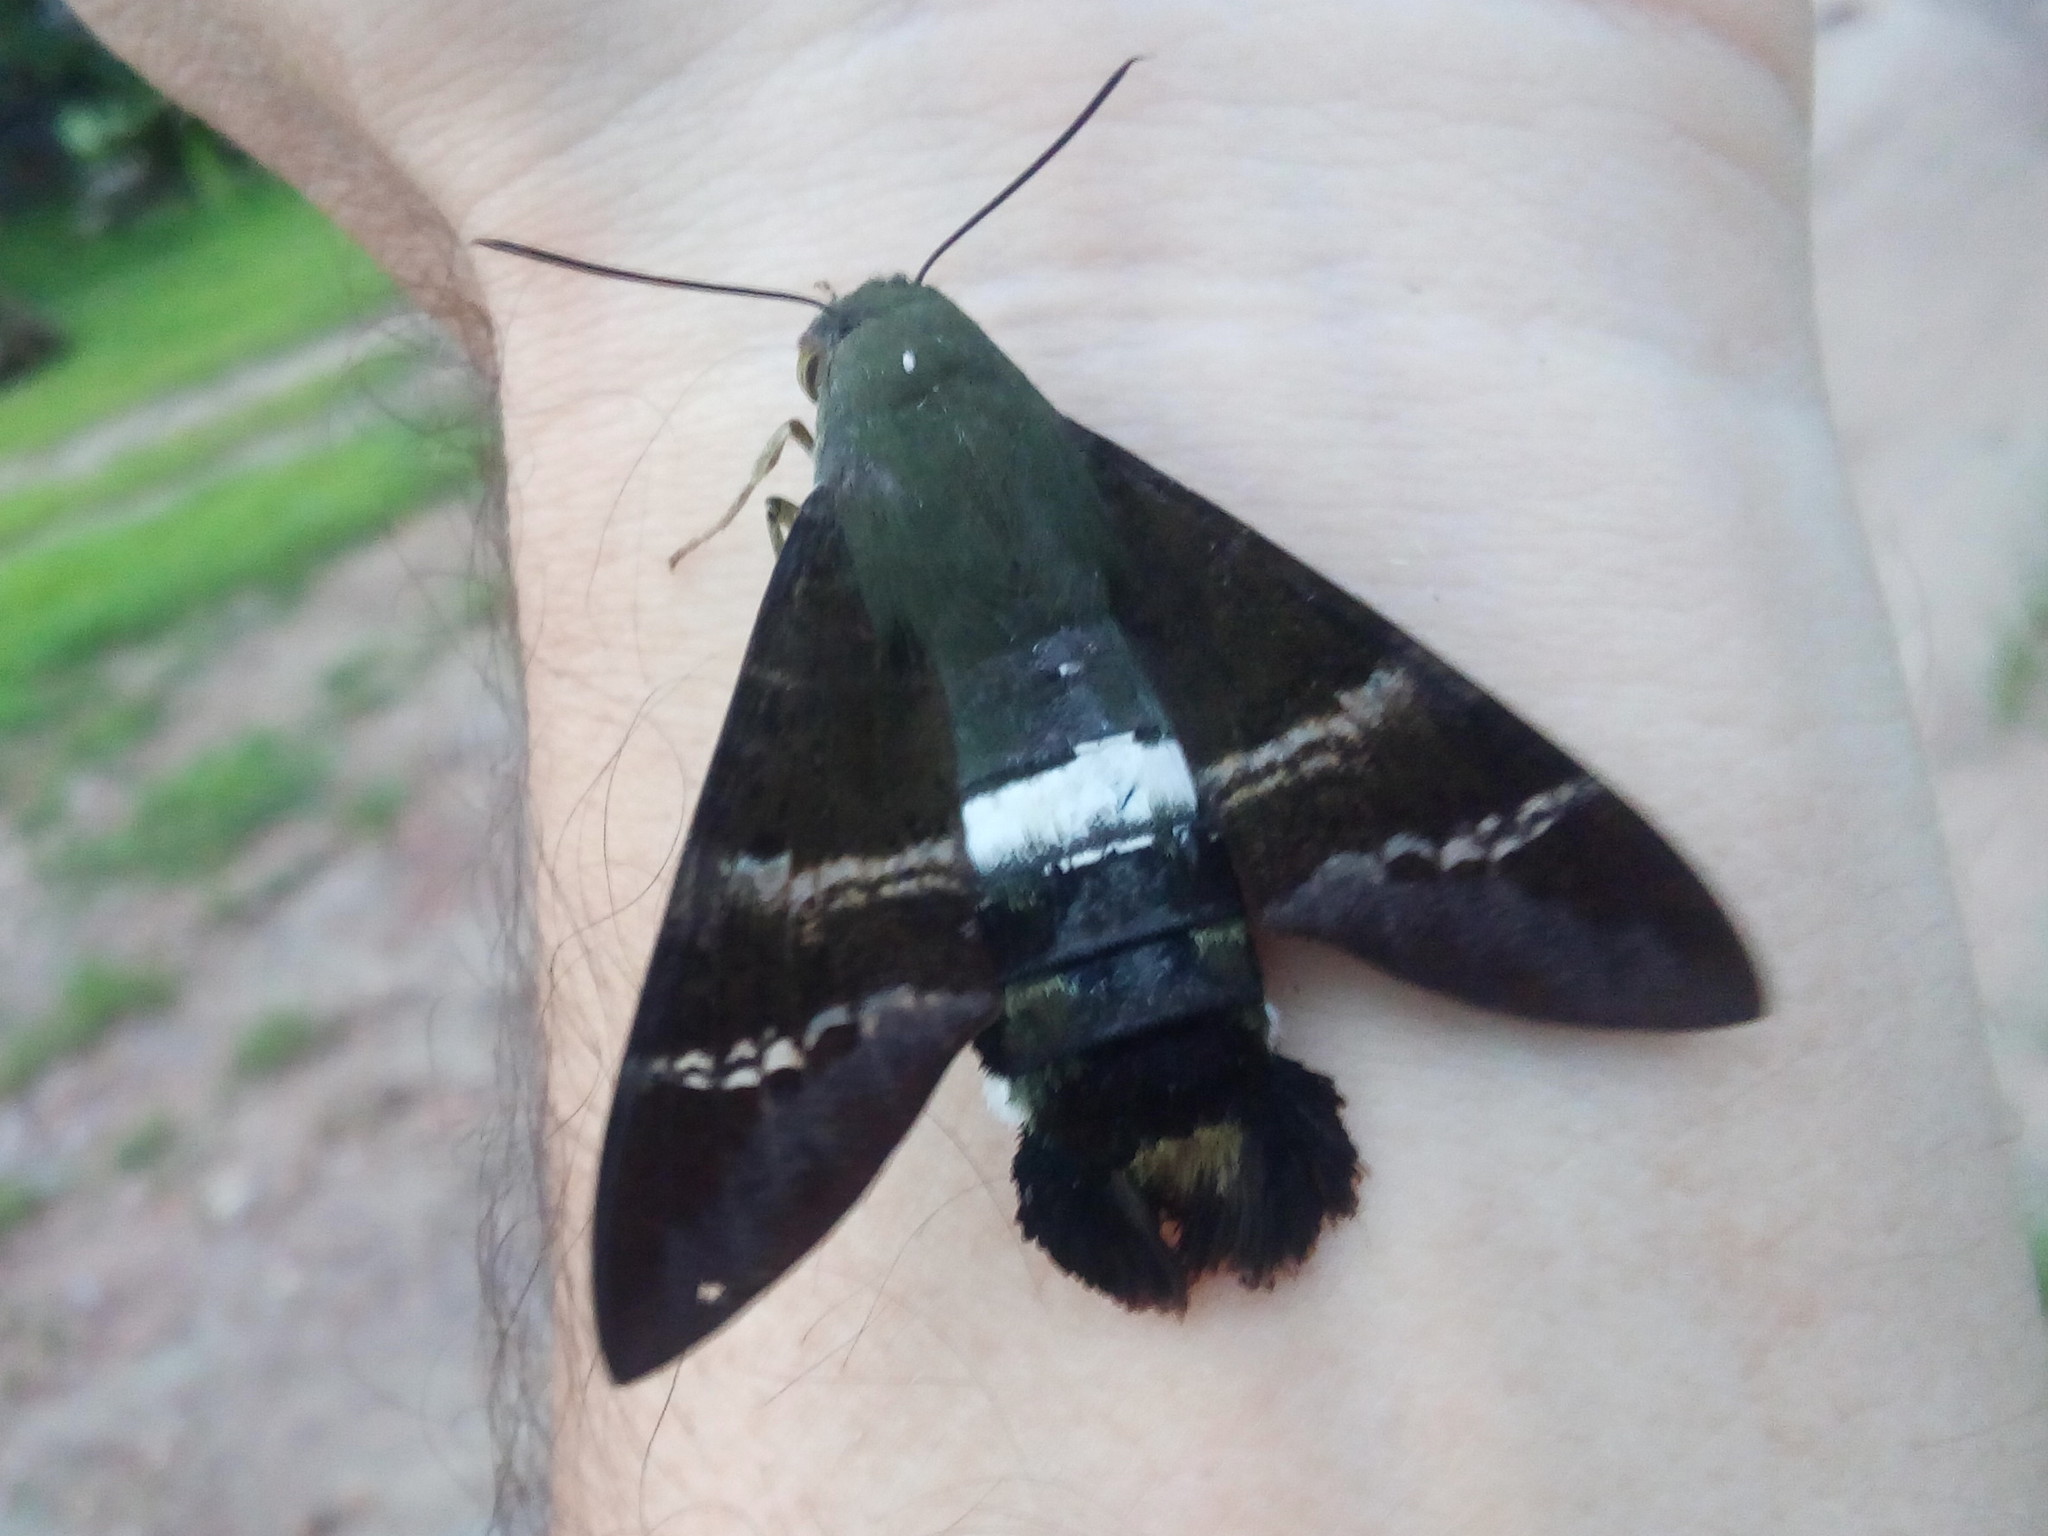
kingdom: Animalia
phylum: Arthropoda
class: Insecta
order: Lepidoptera
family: Sphingidae
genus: Aellopos
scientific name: Aellopos fadus
